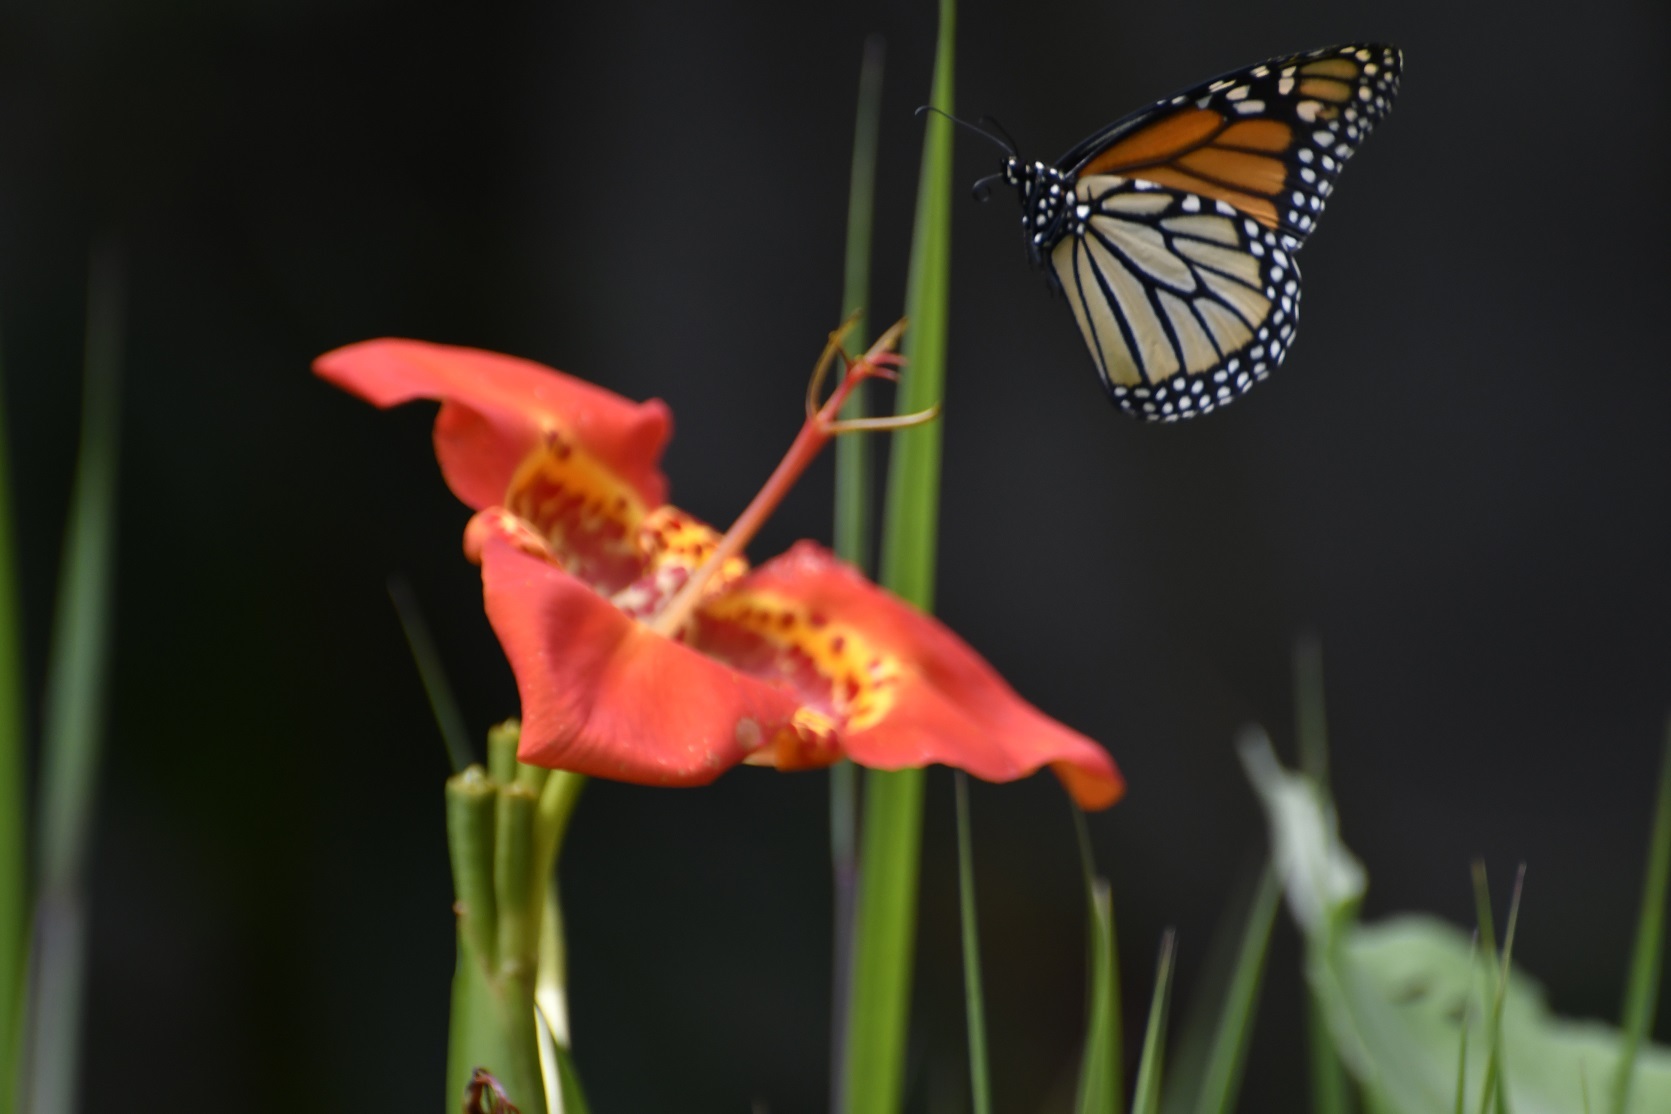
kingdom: Animalia
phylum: Arthropoda
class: Insecta
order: Lepidoptera
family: Nymphalidae
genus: Danaus
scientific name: Danaus plexippus
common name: Monarch
